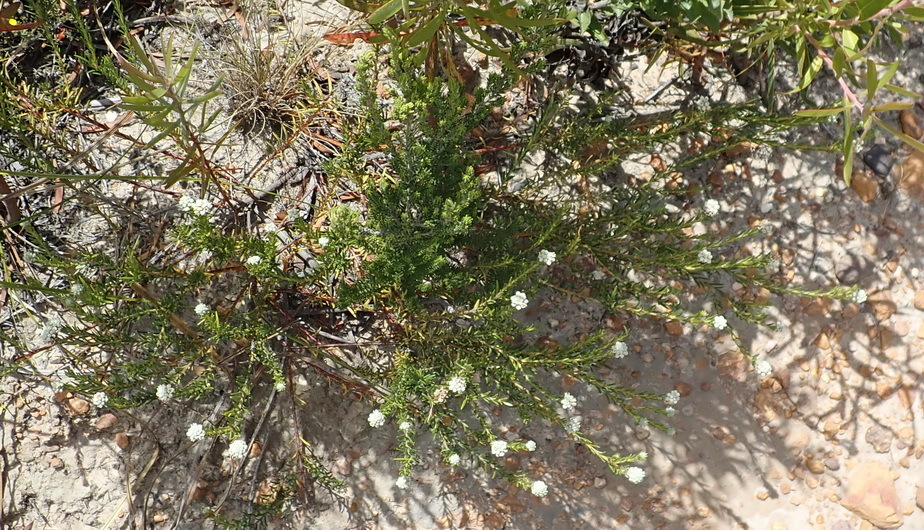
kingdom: Plantae
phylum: Tracheophyta
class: Magnoliopsida
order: Rosales
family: Rhamnaceae
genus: Phylica
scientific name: Phylica imberbis
